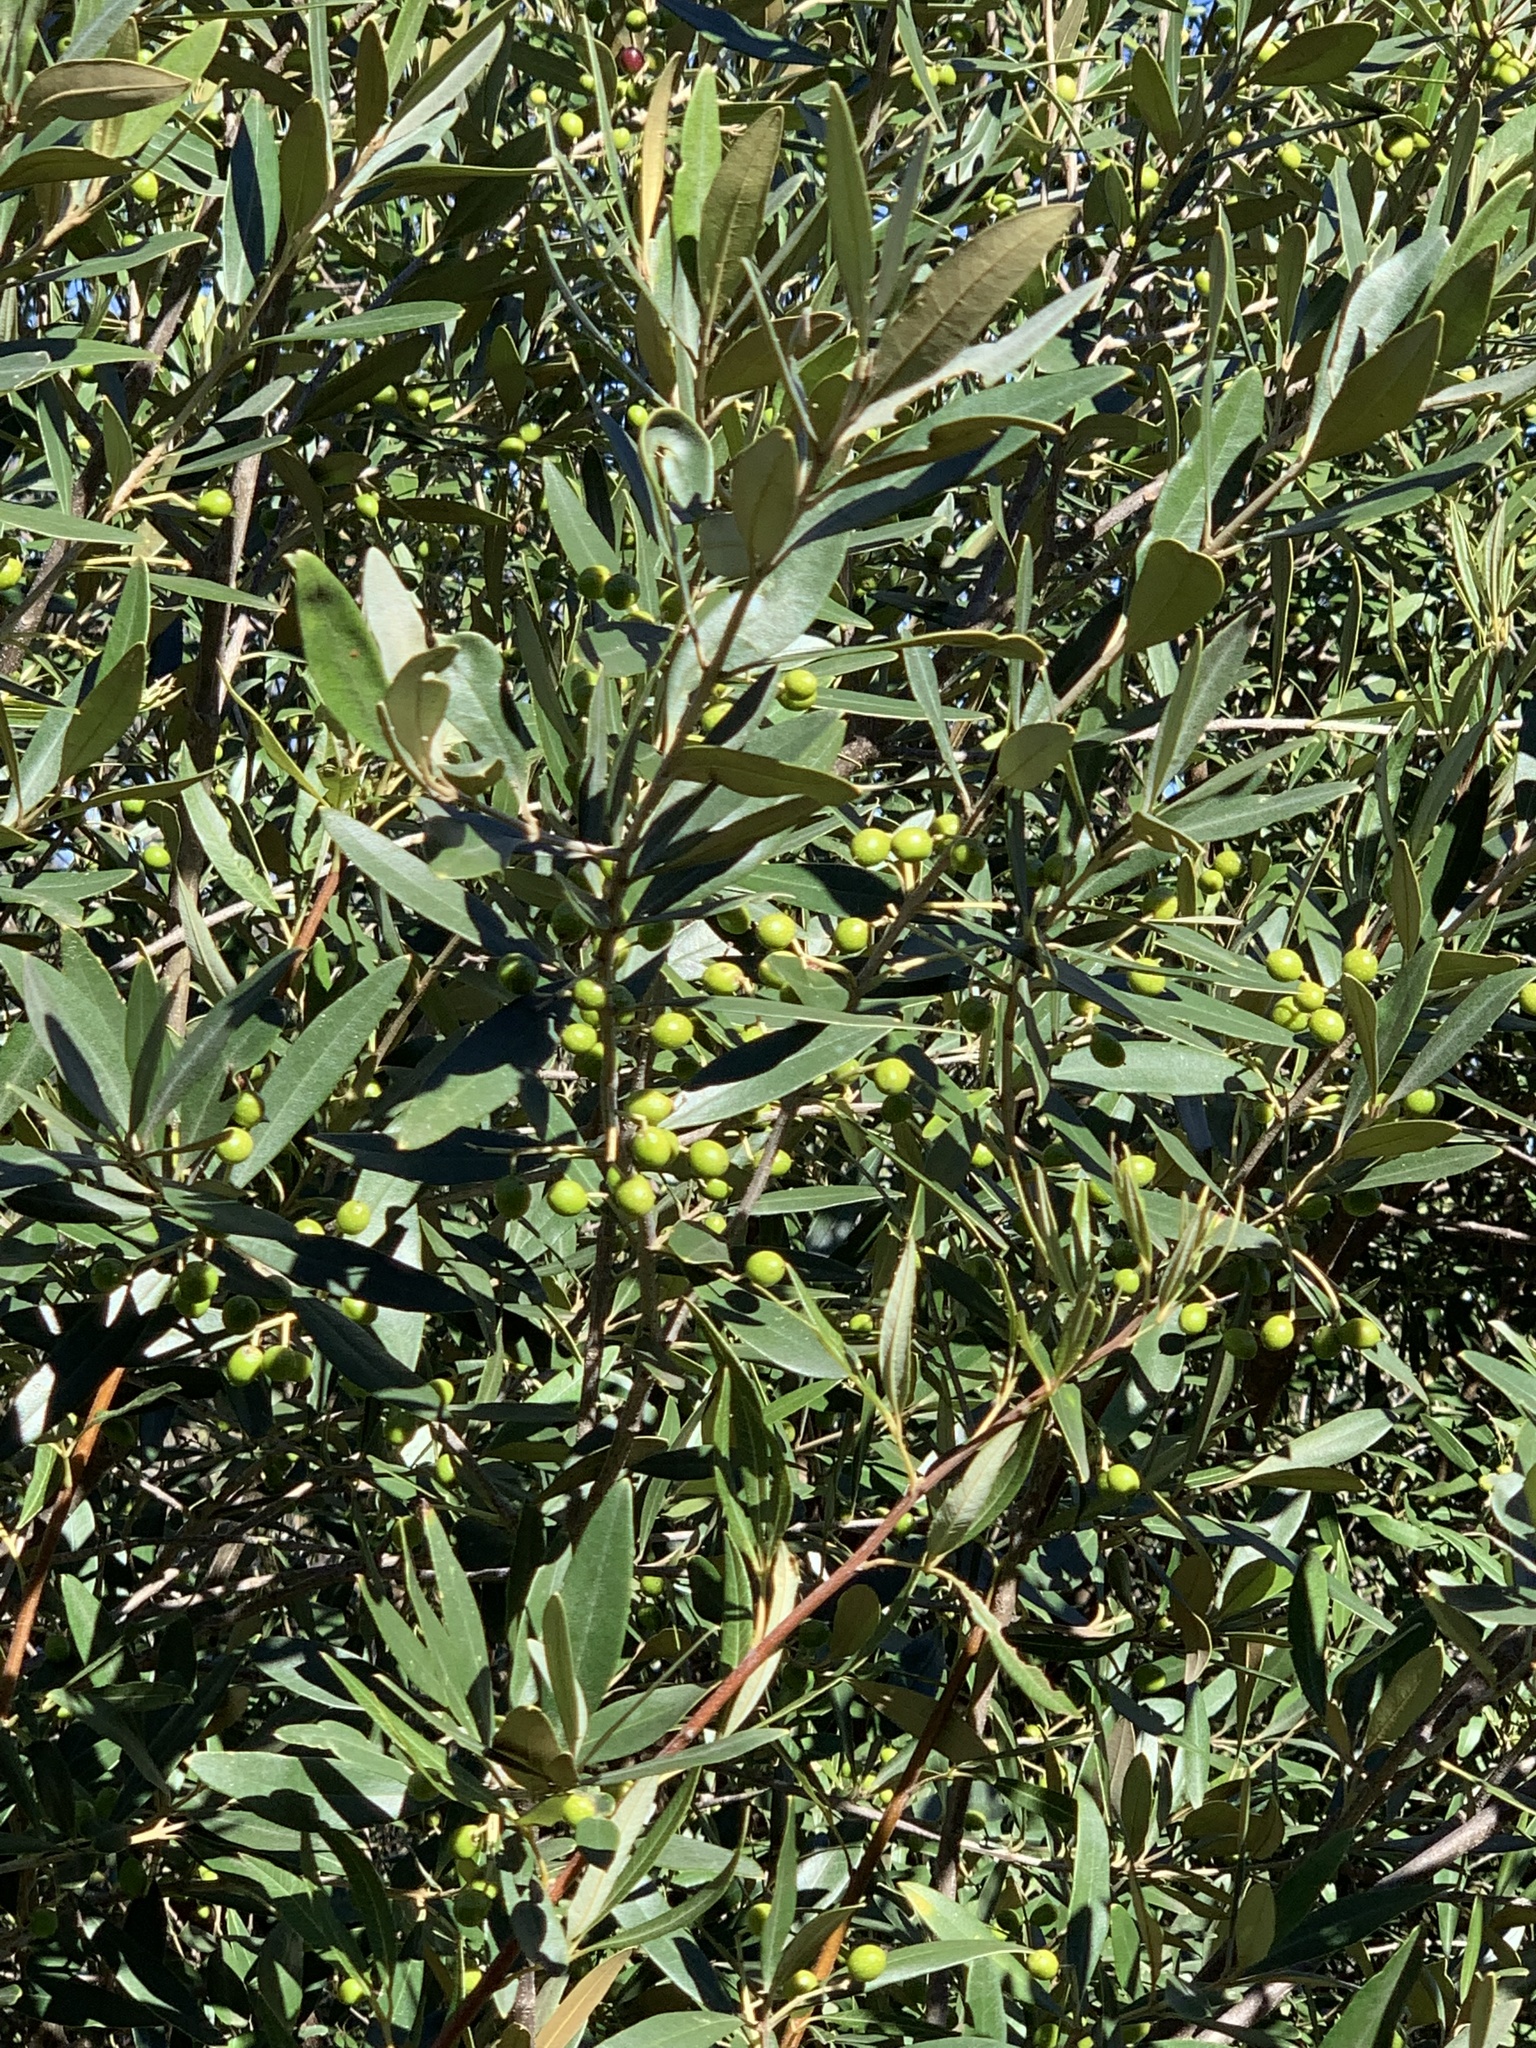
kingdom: Plantae
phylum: Tracheophyta
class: Magnoliopsida
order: Lamiales
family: Oleaceae
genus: Olea
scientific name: Olea europaea
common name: Olive
